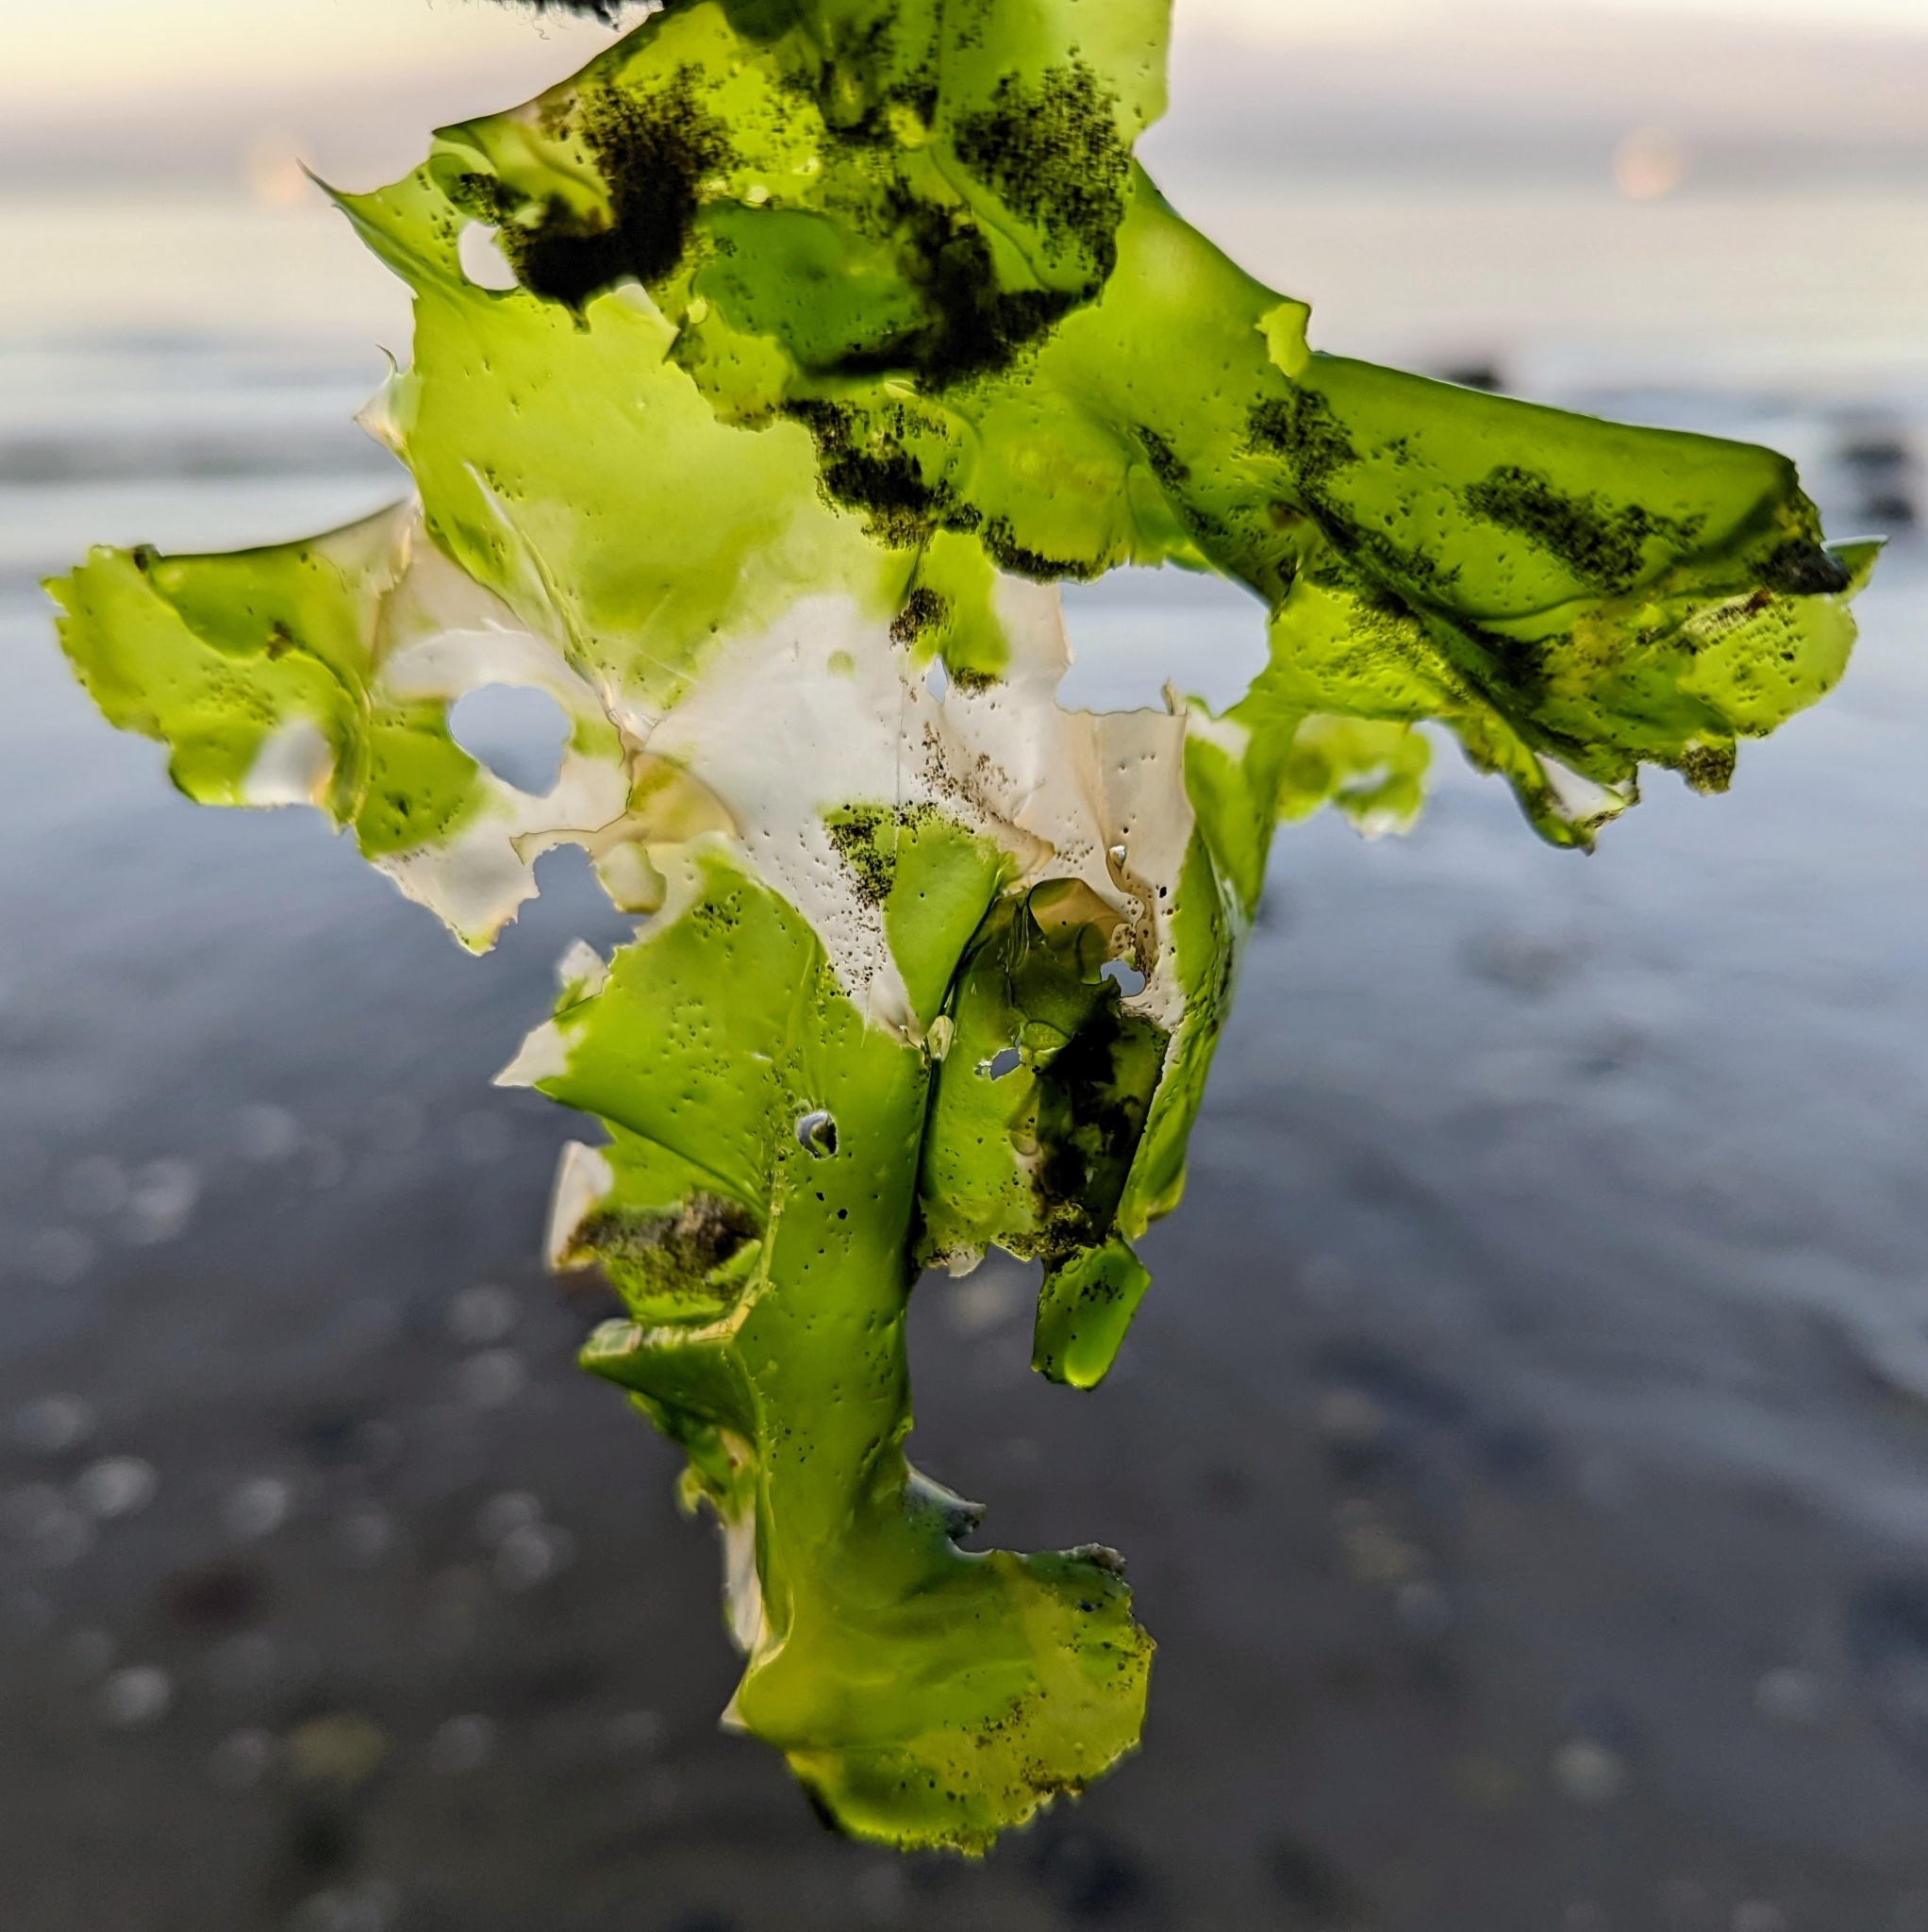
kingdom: Plantae
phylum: Chlorophyta
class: Ulvophyceae
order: Ulvales
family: Ulvaceae
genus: Ulva
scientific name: Ulva lactuca
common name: Sea lettuce
